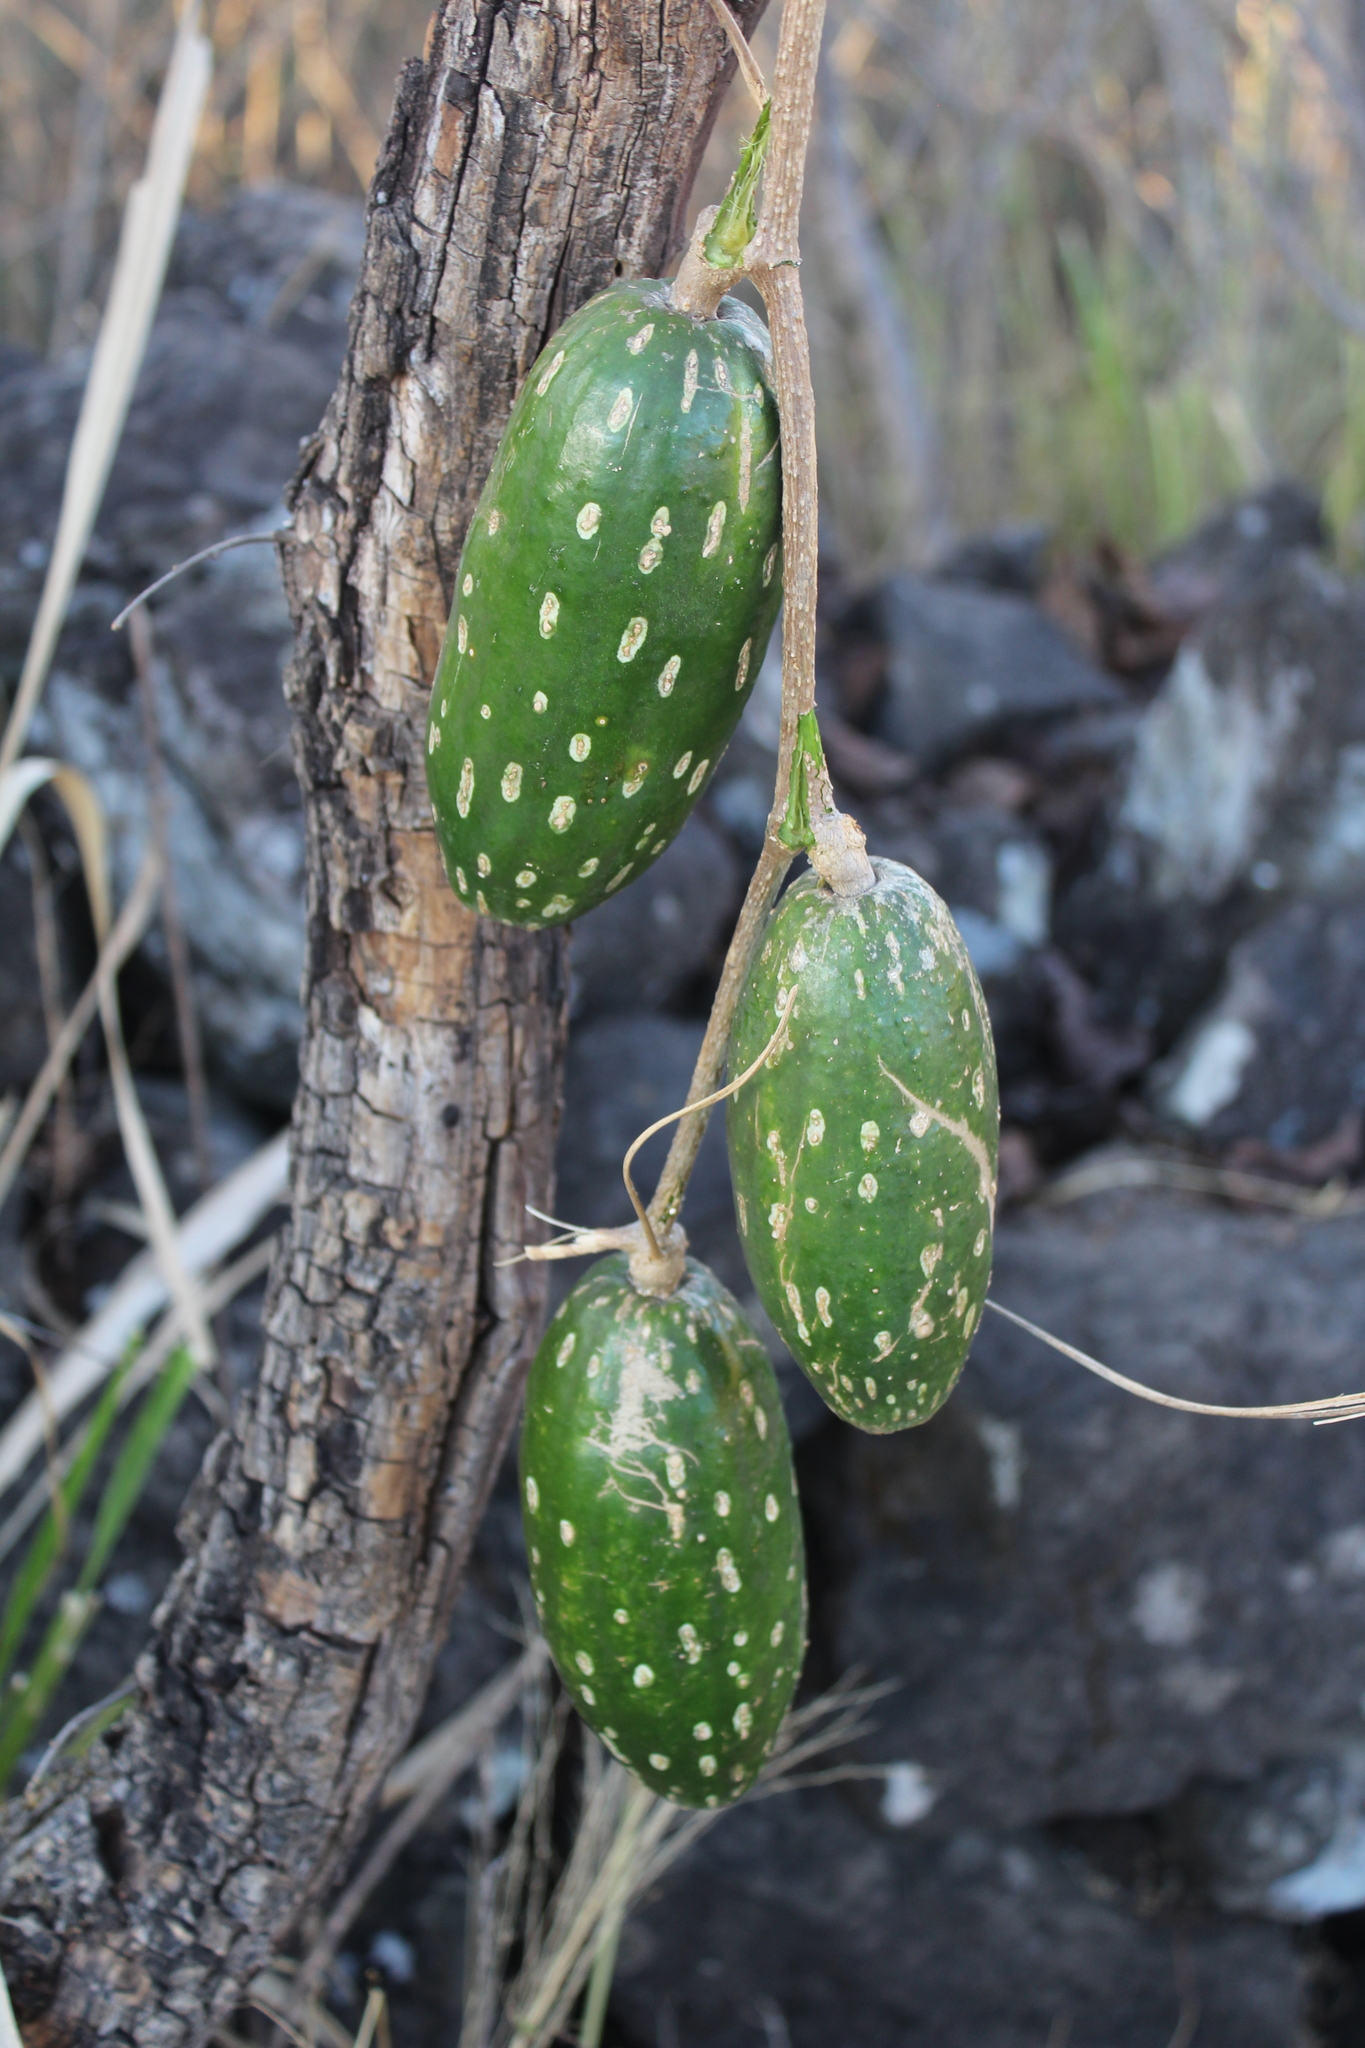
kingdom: Plantae
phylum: Tracheophyta
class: Magnoliopsida
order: Cucurbitales
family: Cucurbitaceae
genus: Ibervillea
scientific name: Ibervillea maxima
